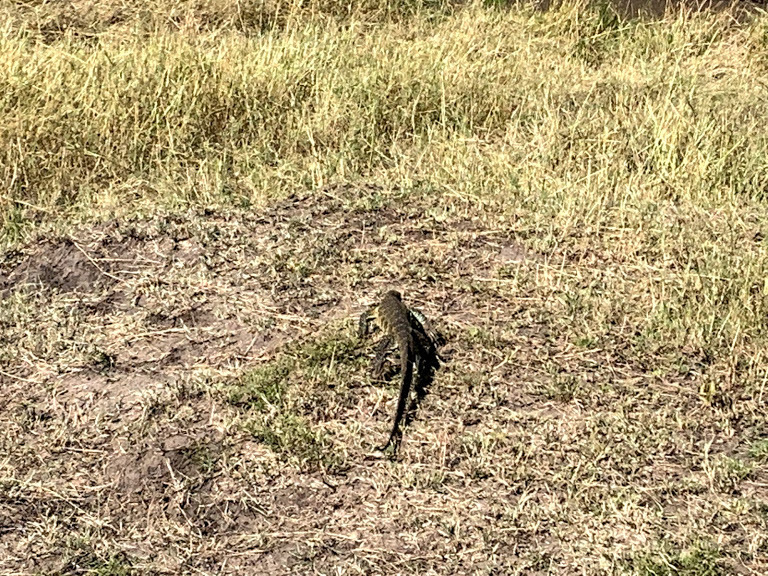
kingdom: Animalia
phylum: Chordata
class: Squamata
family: Varanidae
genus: Varanus
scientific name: Varanus niloticus
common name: Nile monitor
